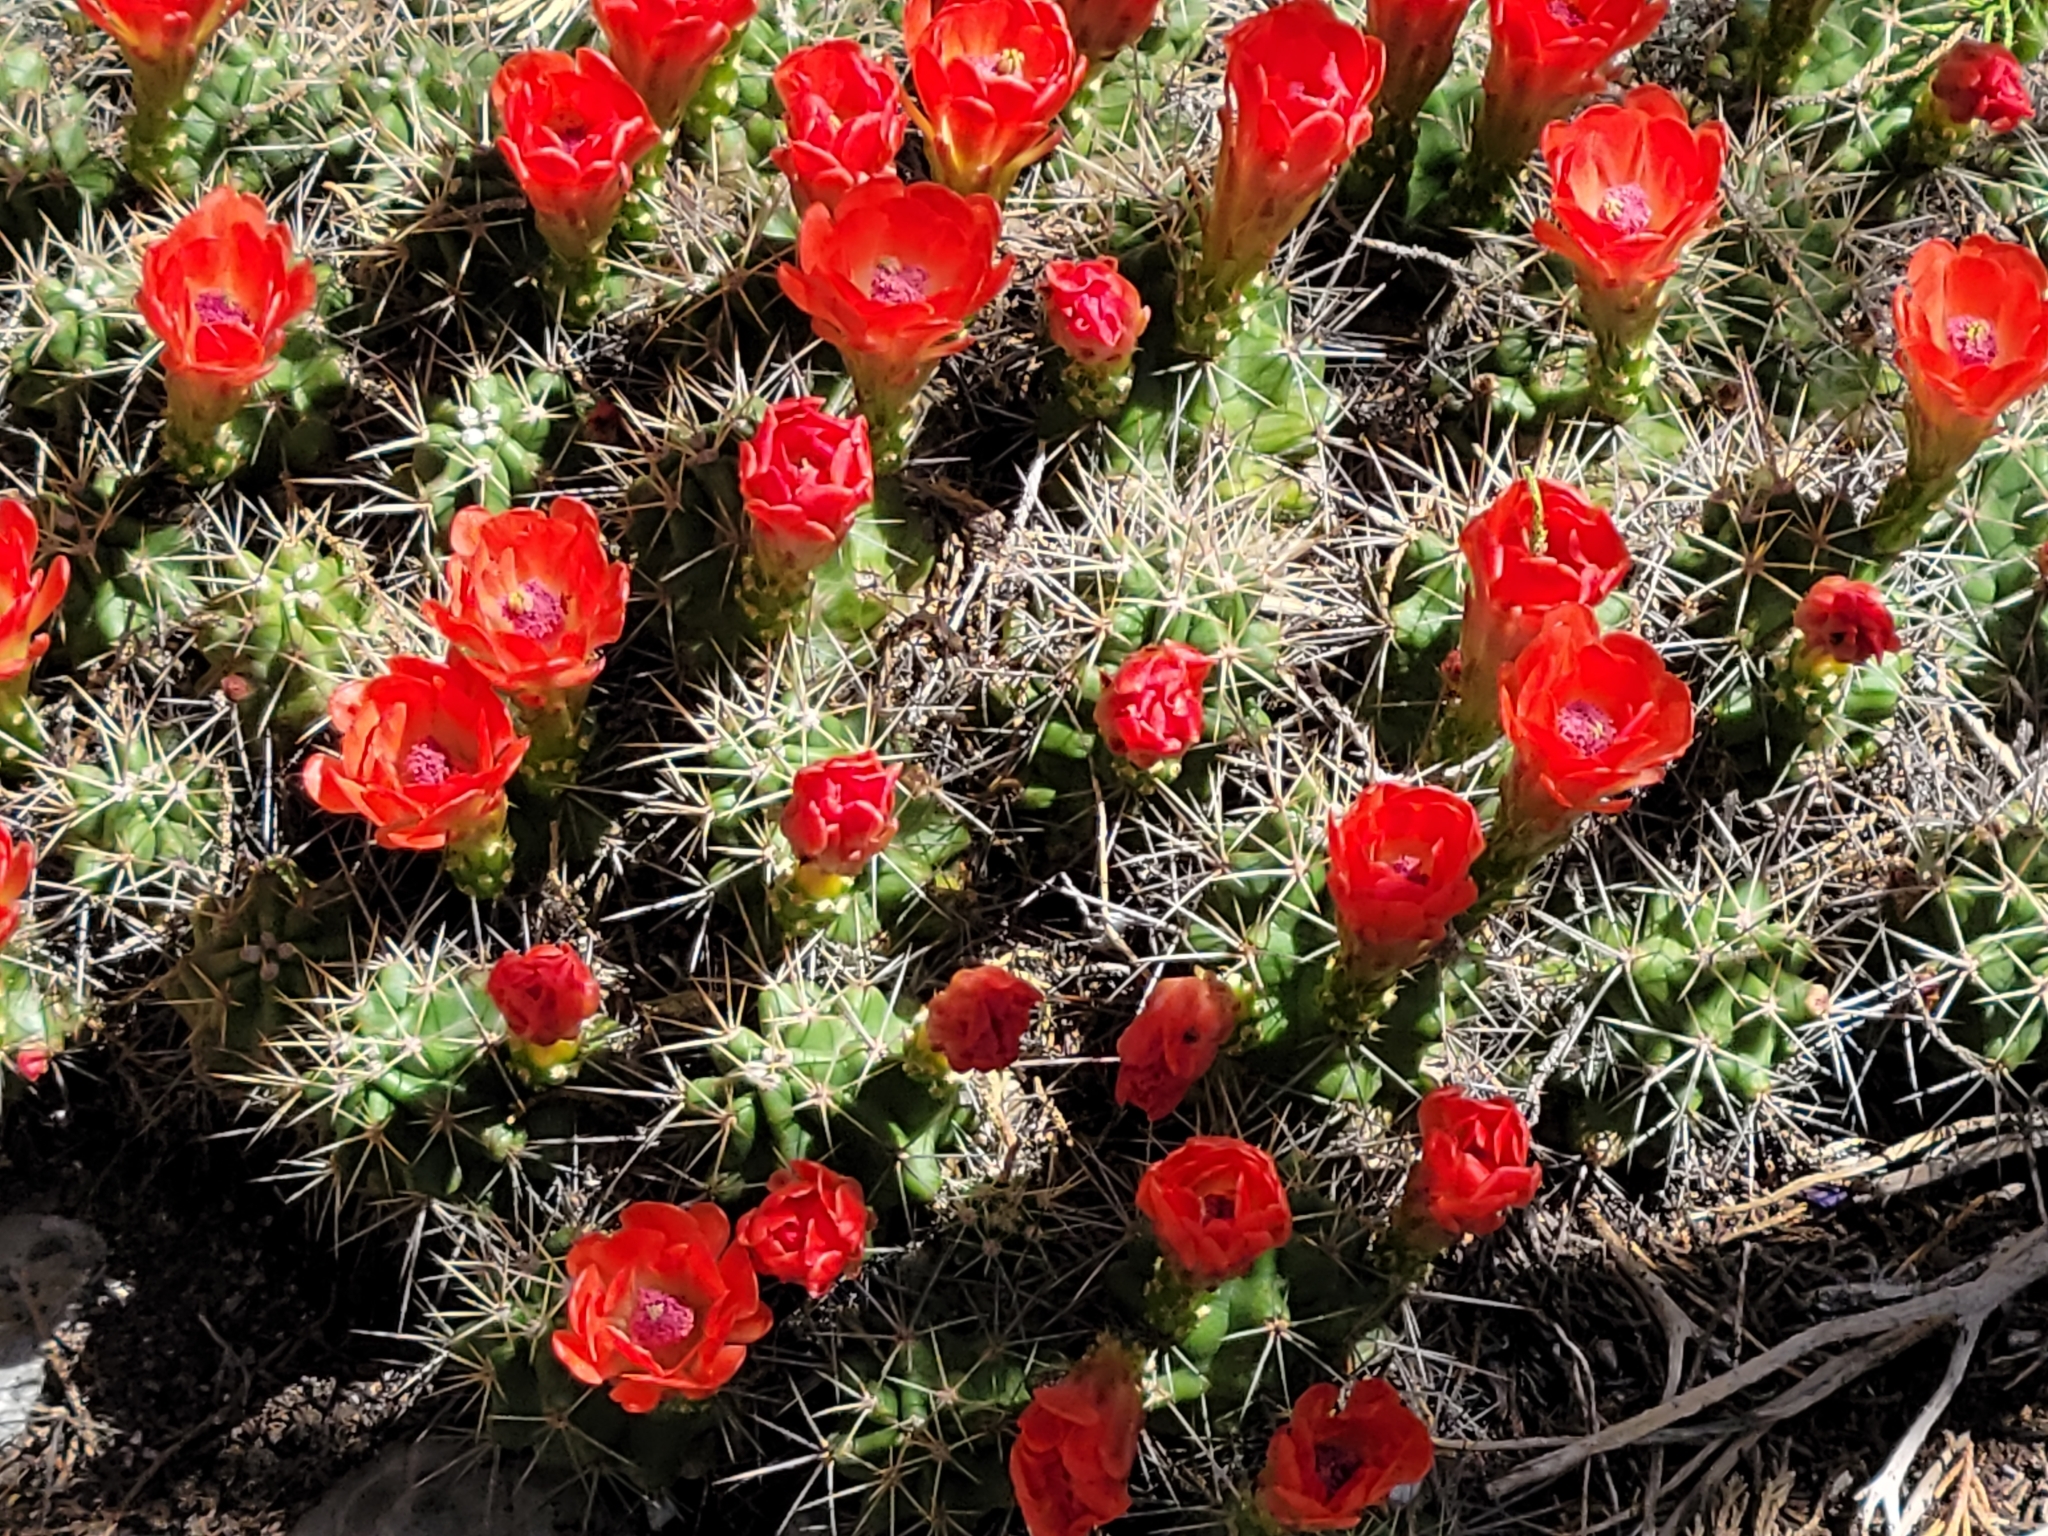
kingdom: Plantae
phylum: Tracheophyta
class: Magnoliopsida
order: Caryophyllales
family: Cactaceae
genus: Echinocereus
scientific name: Echinocereus coccineus
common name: Scarlet hedgehog cactus
